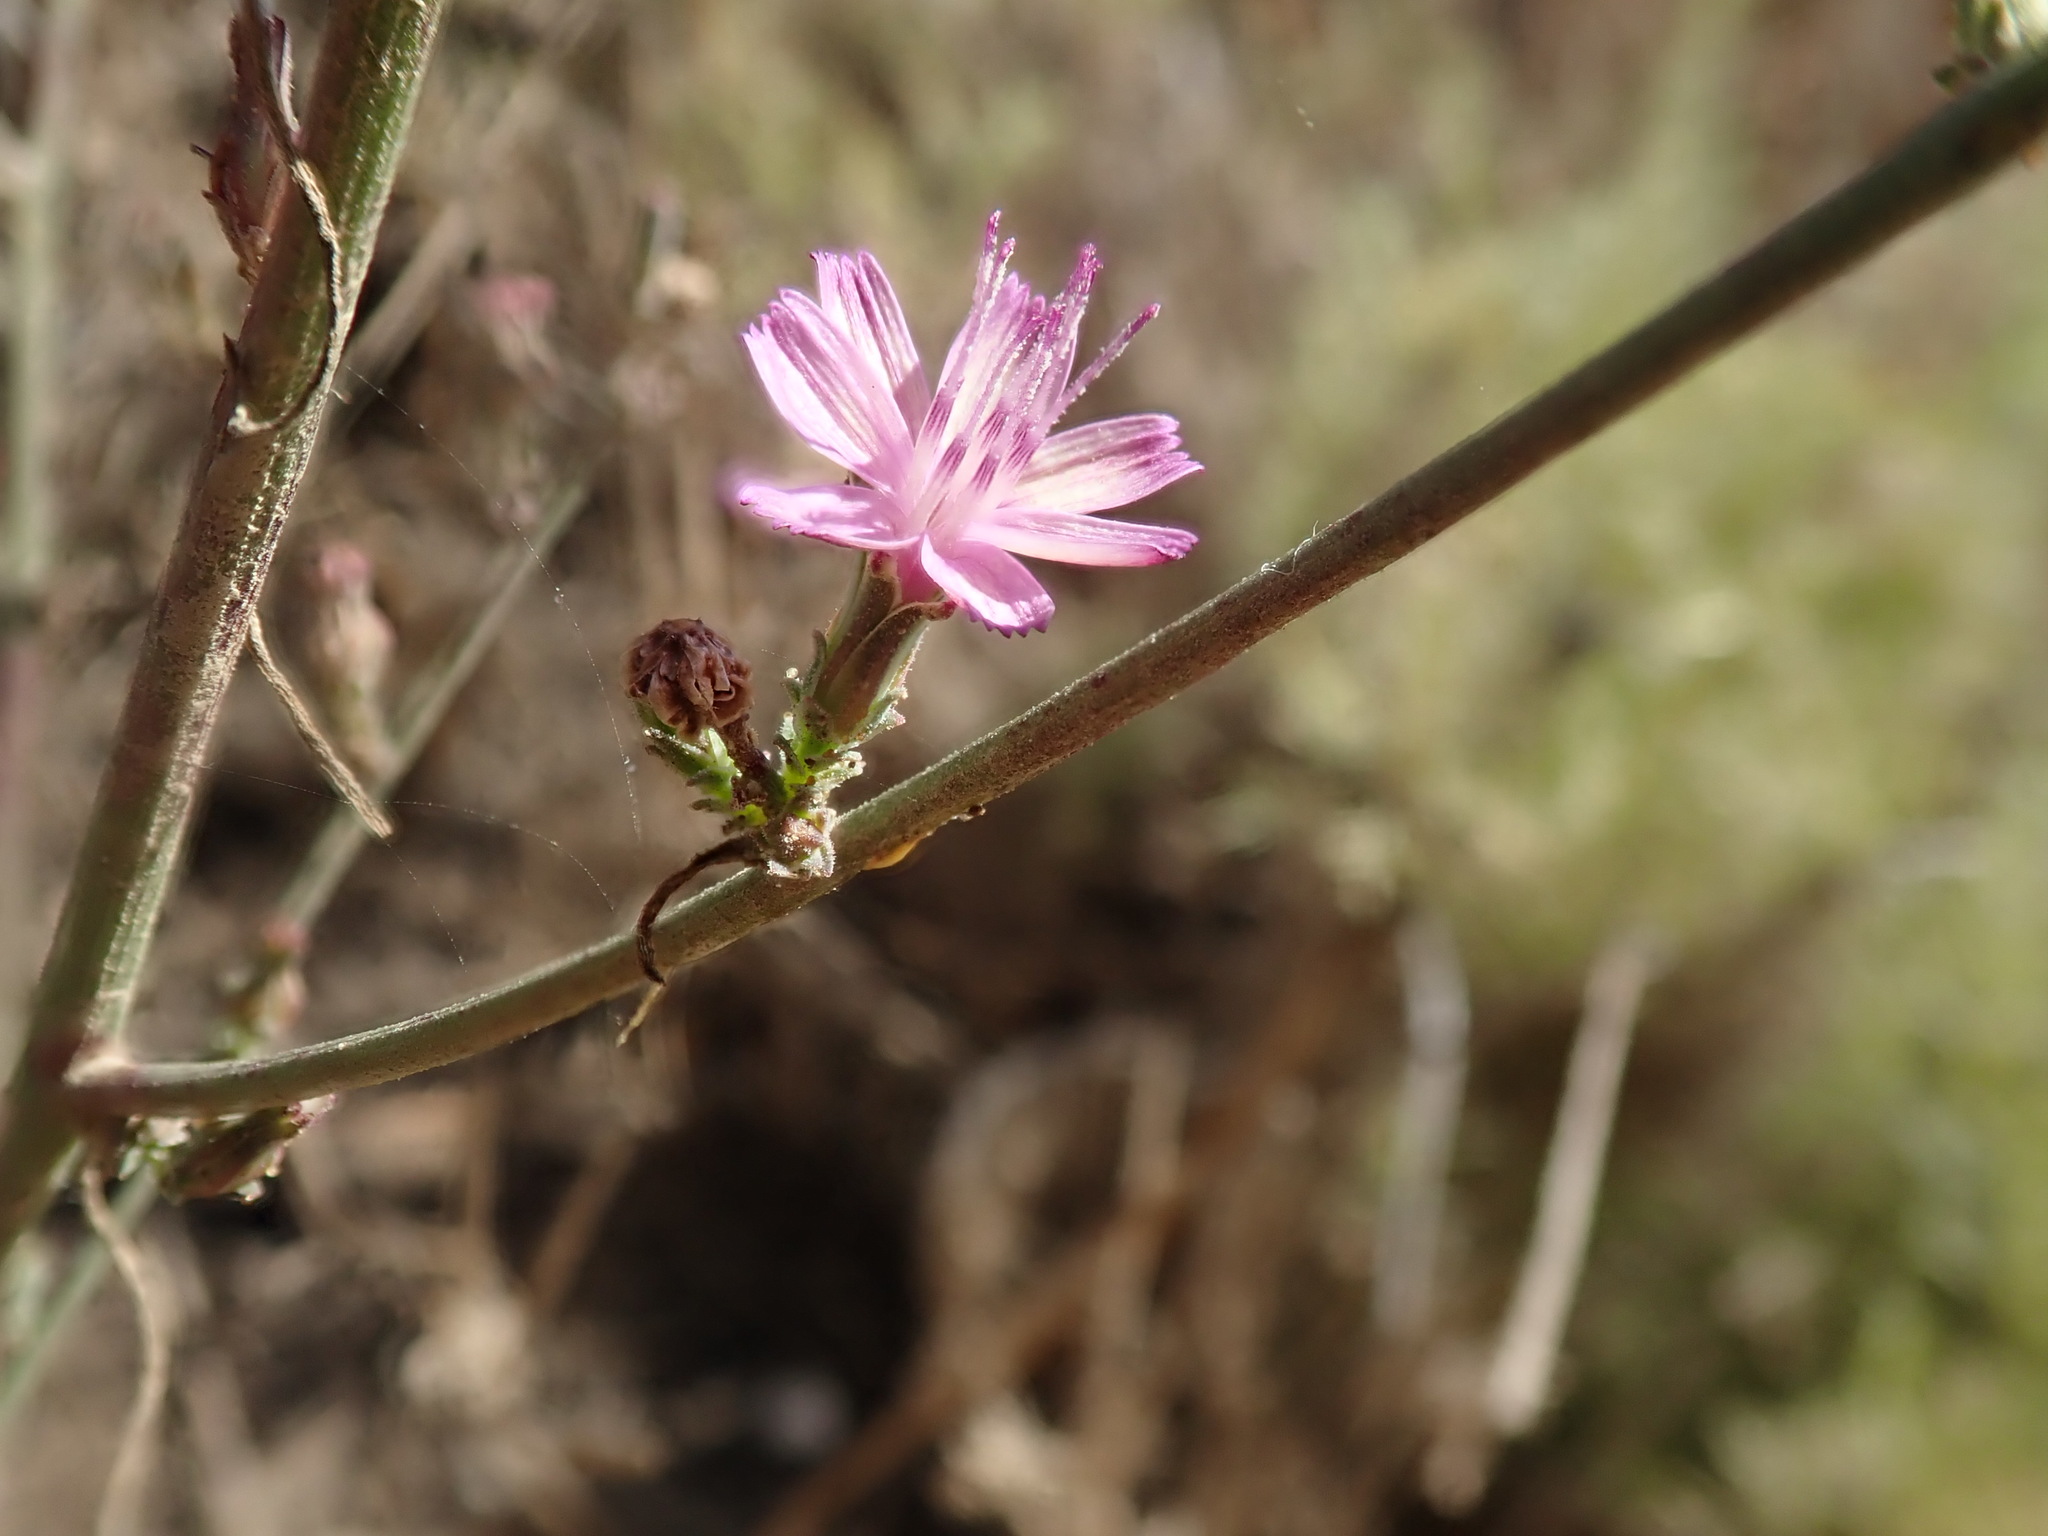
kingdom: Plantae
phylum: Tracheophyta
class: Magnoliopsida
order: Asterales
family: Asteraceae
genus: Stephanomeria
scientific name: Stephanomeria virgata
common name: Virgate wirelettuce
